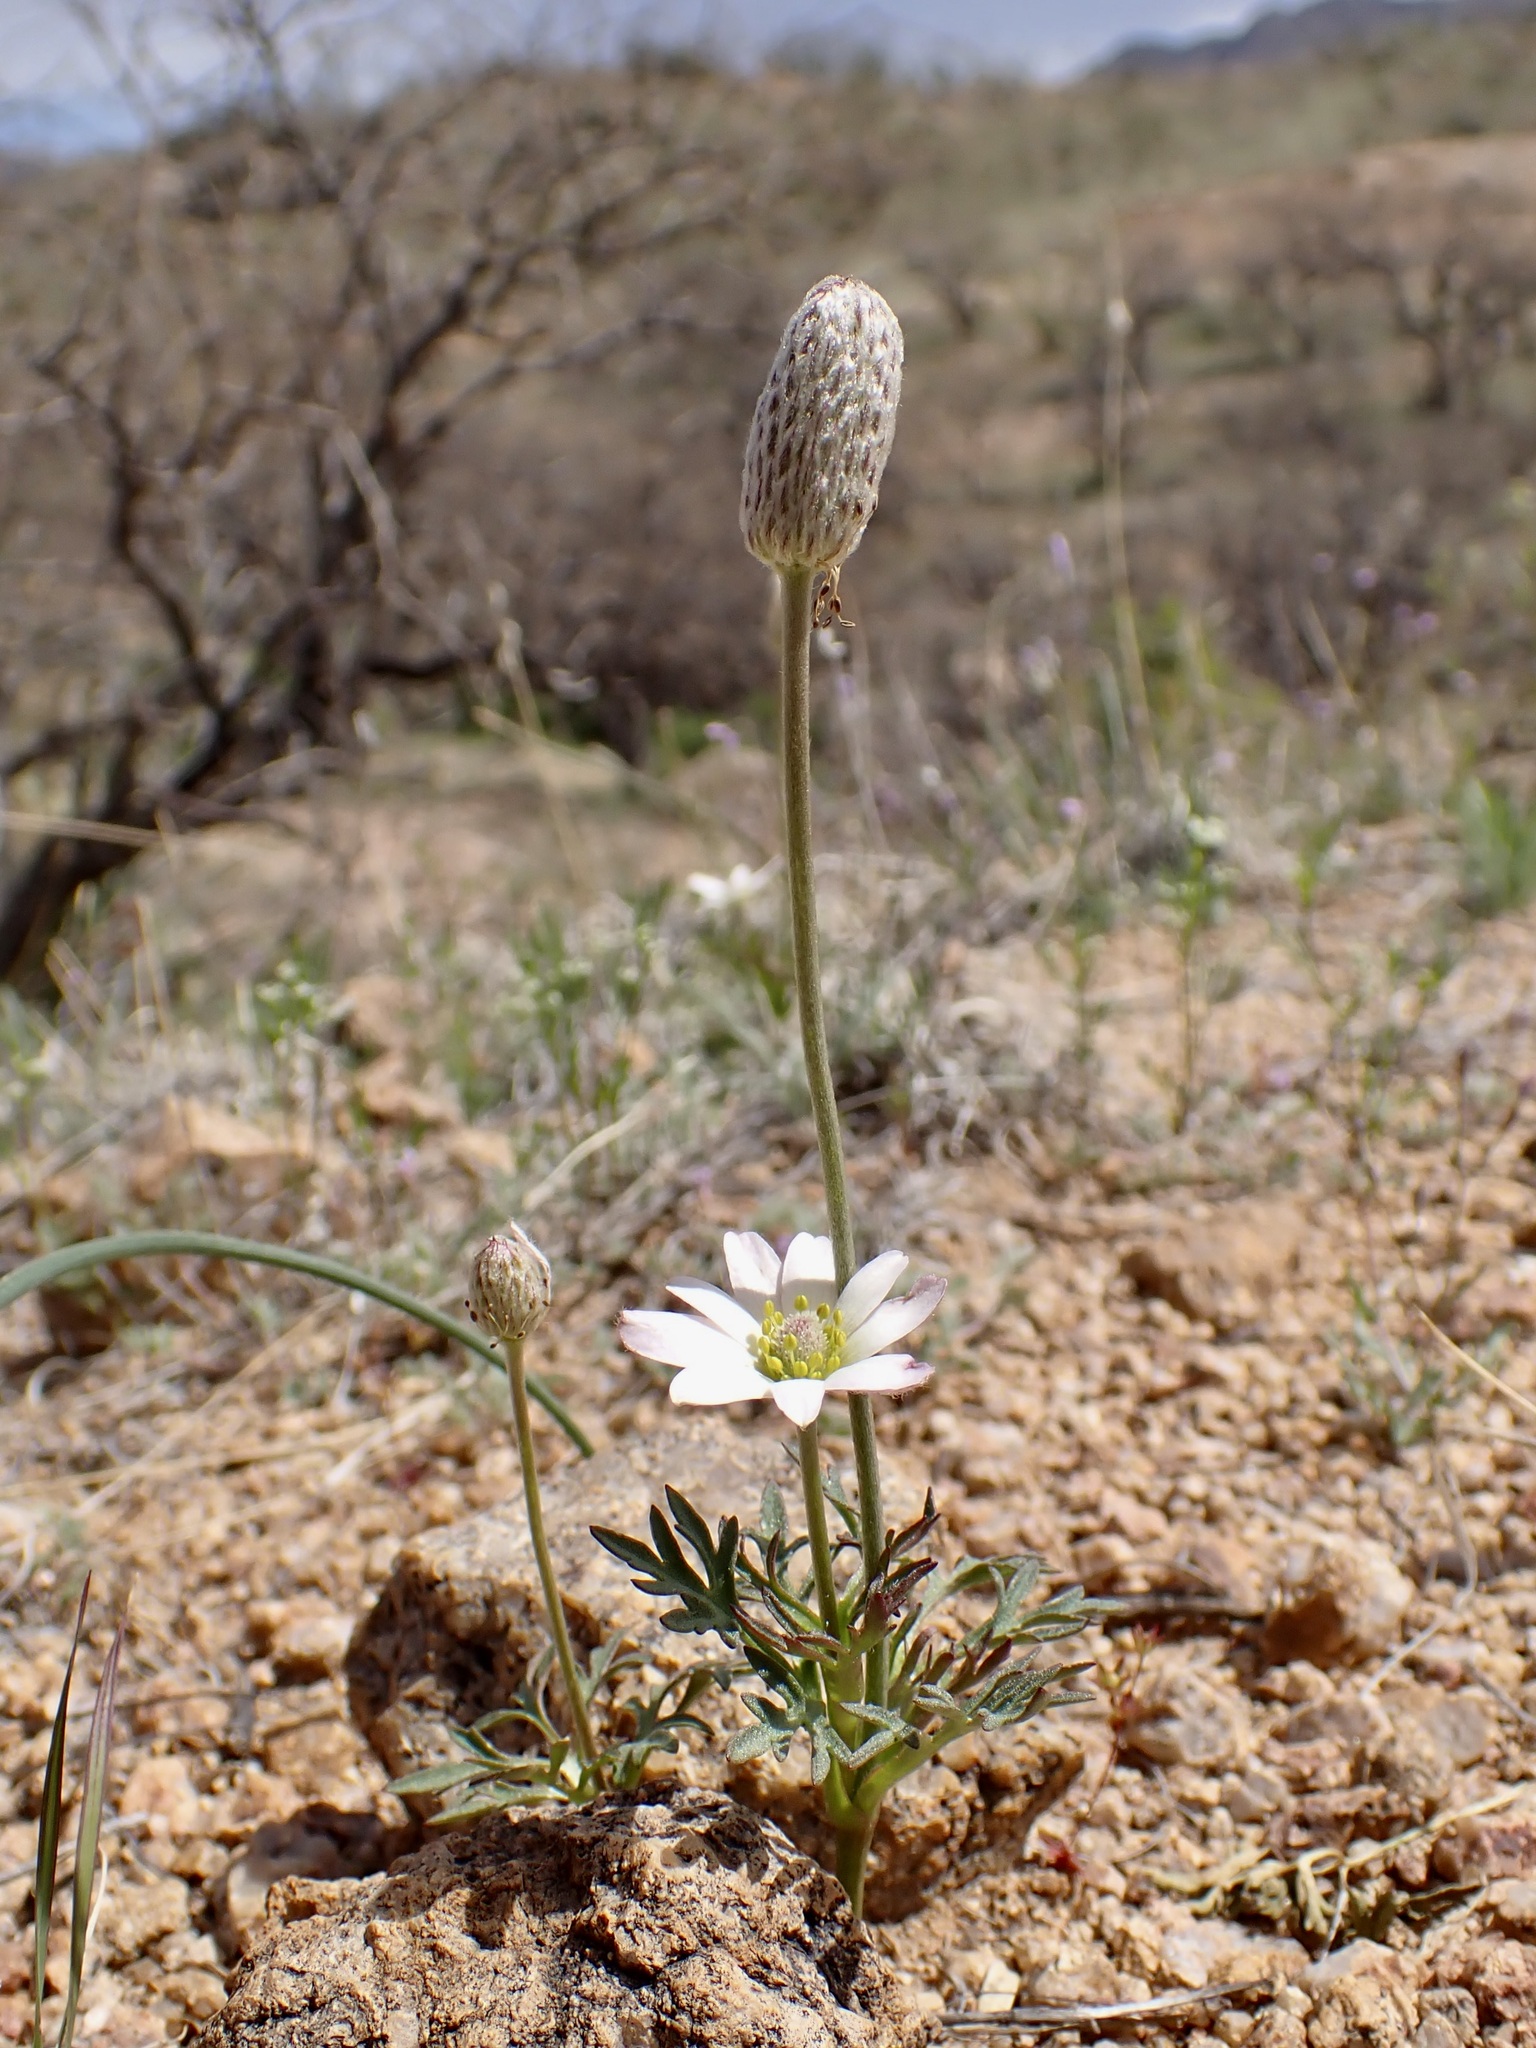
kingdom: Plantae
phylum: Tracheophyta
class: Magnoliopsida
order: Ranunculales
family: Ranunculaceae
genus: Anemone
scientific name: Anemone tuberosa
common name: Desert anemone
